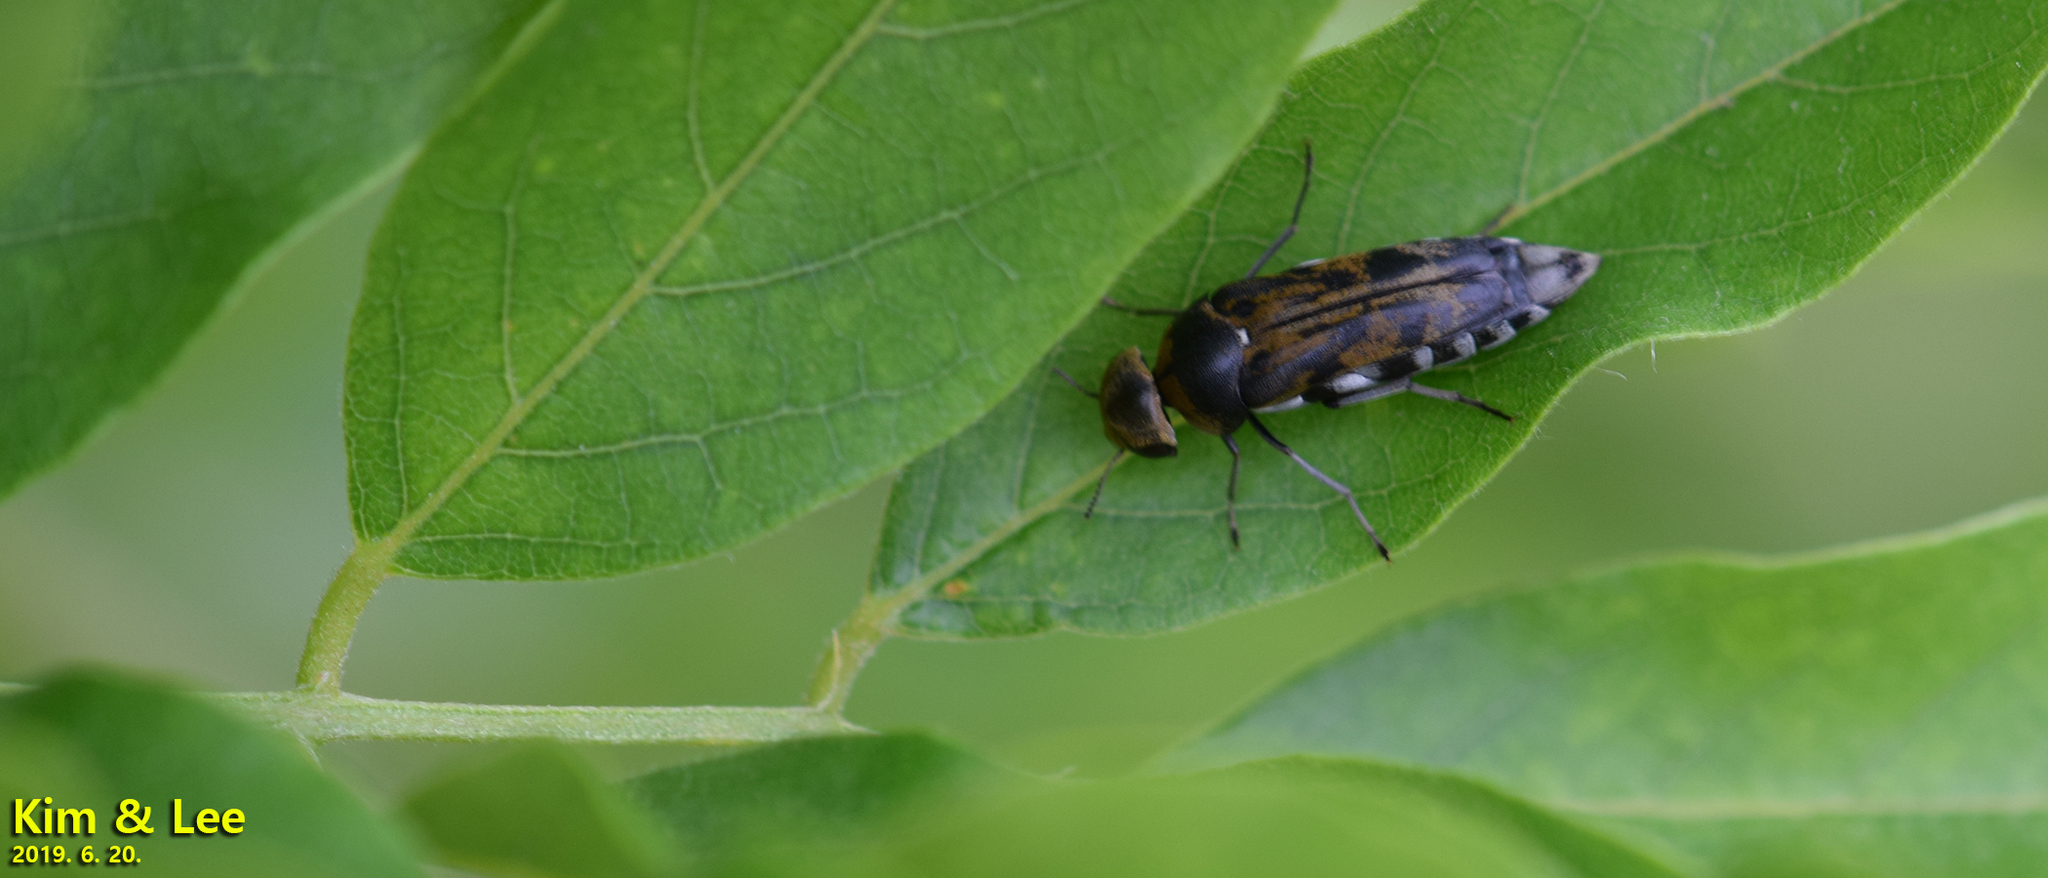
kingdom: Animalia
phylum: Arthropoda
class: Insecta
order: Coleoptera
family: Mordellidae
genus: Yakuhananomia
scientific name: Yakuhananomia
